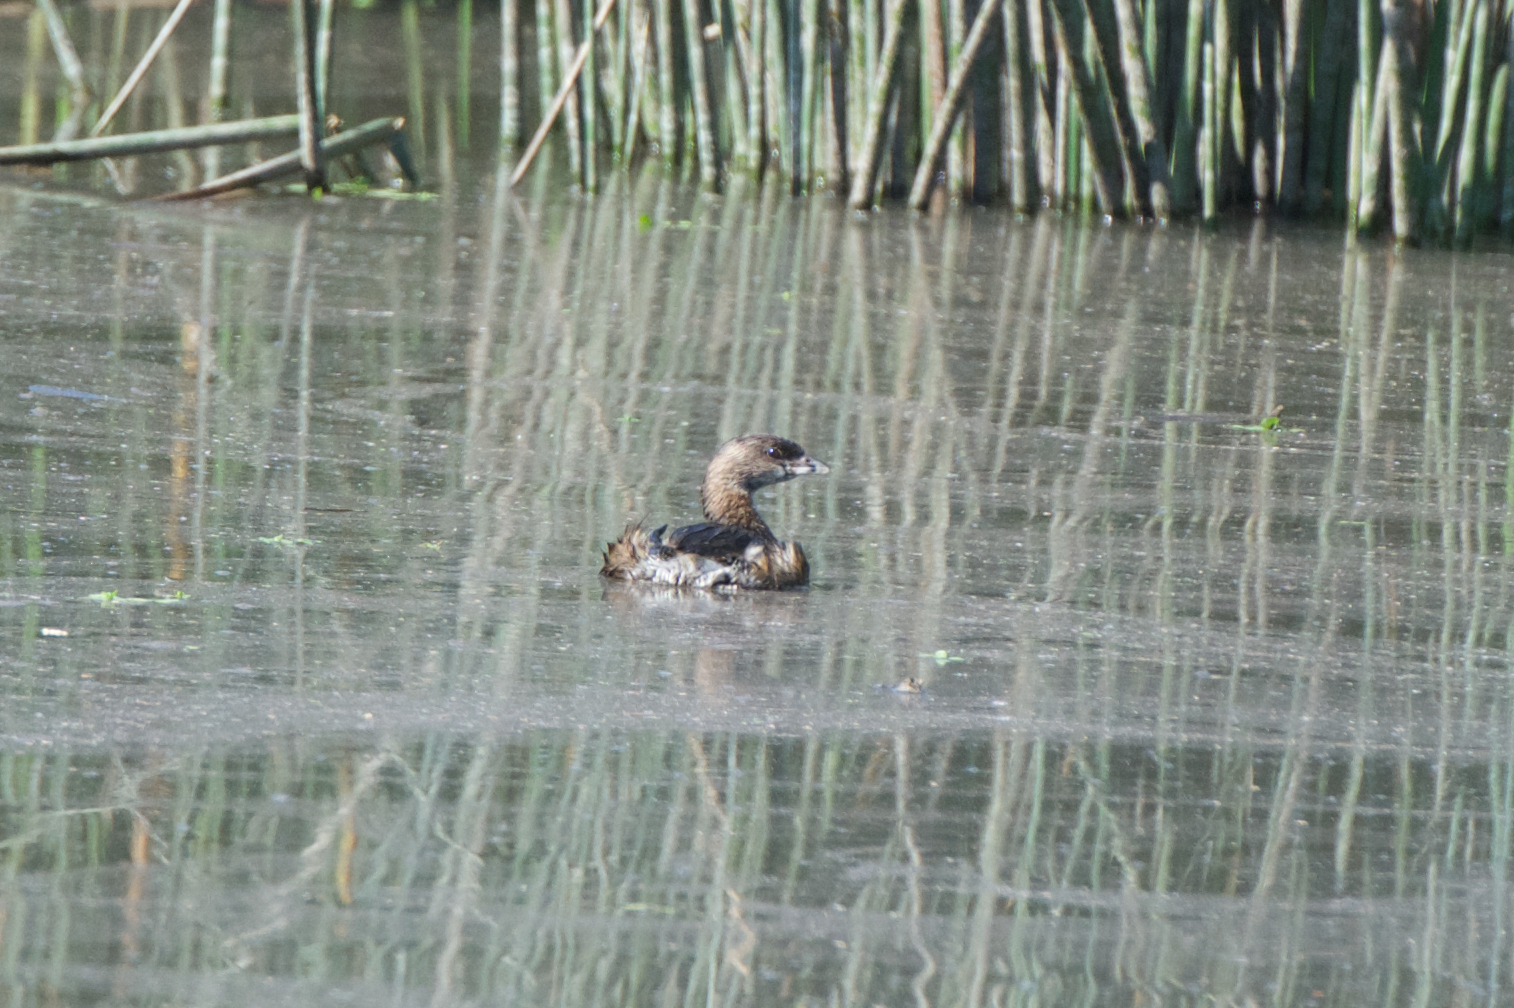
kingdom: Animalia
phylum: Chordata
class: Aves
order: Podicipediformes
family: Podicipedidae
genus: Podilymbus
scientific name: Podilymbus podiceps
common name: Pied-billed grebe
